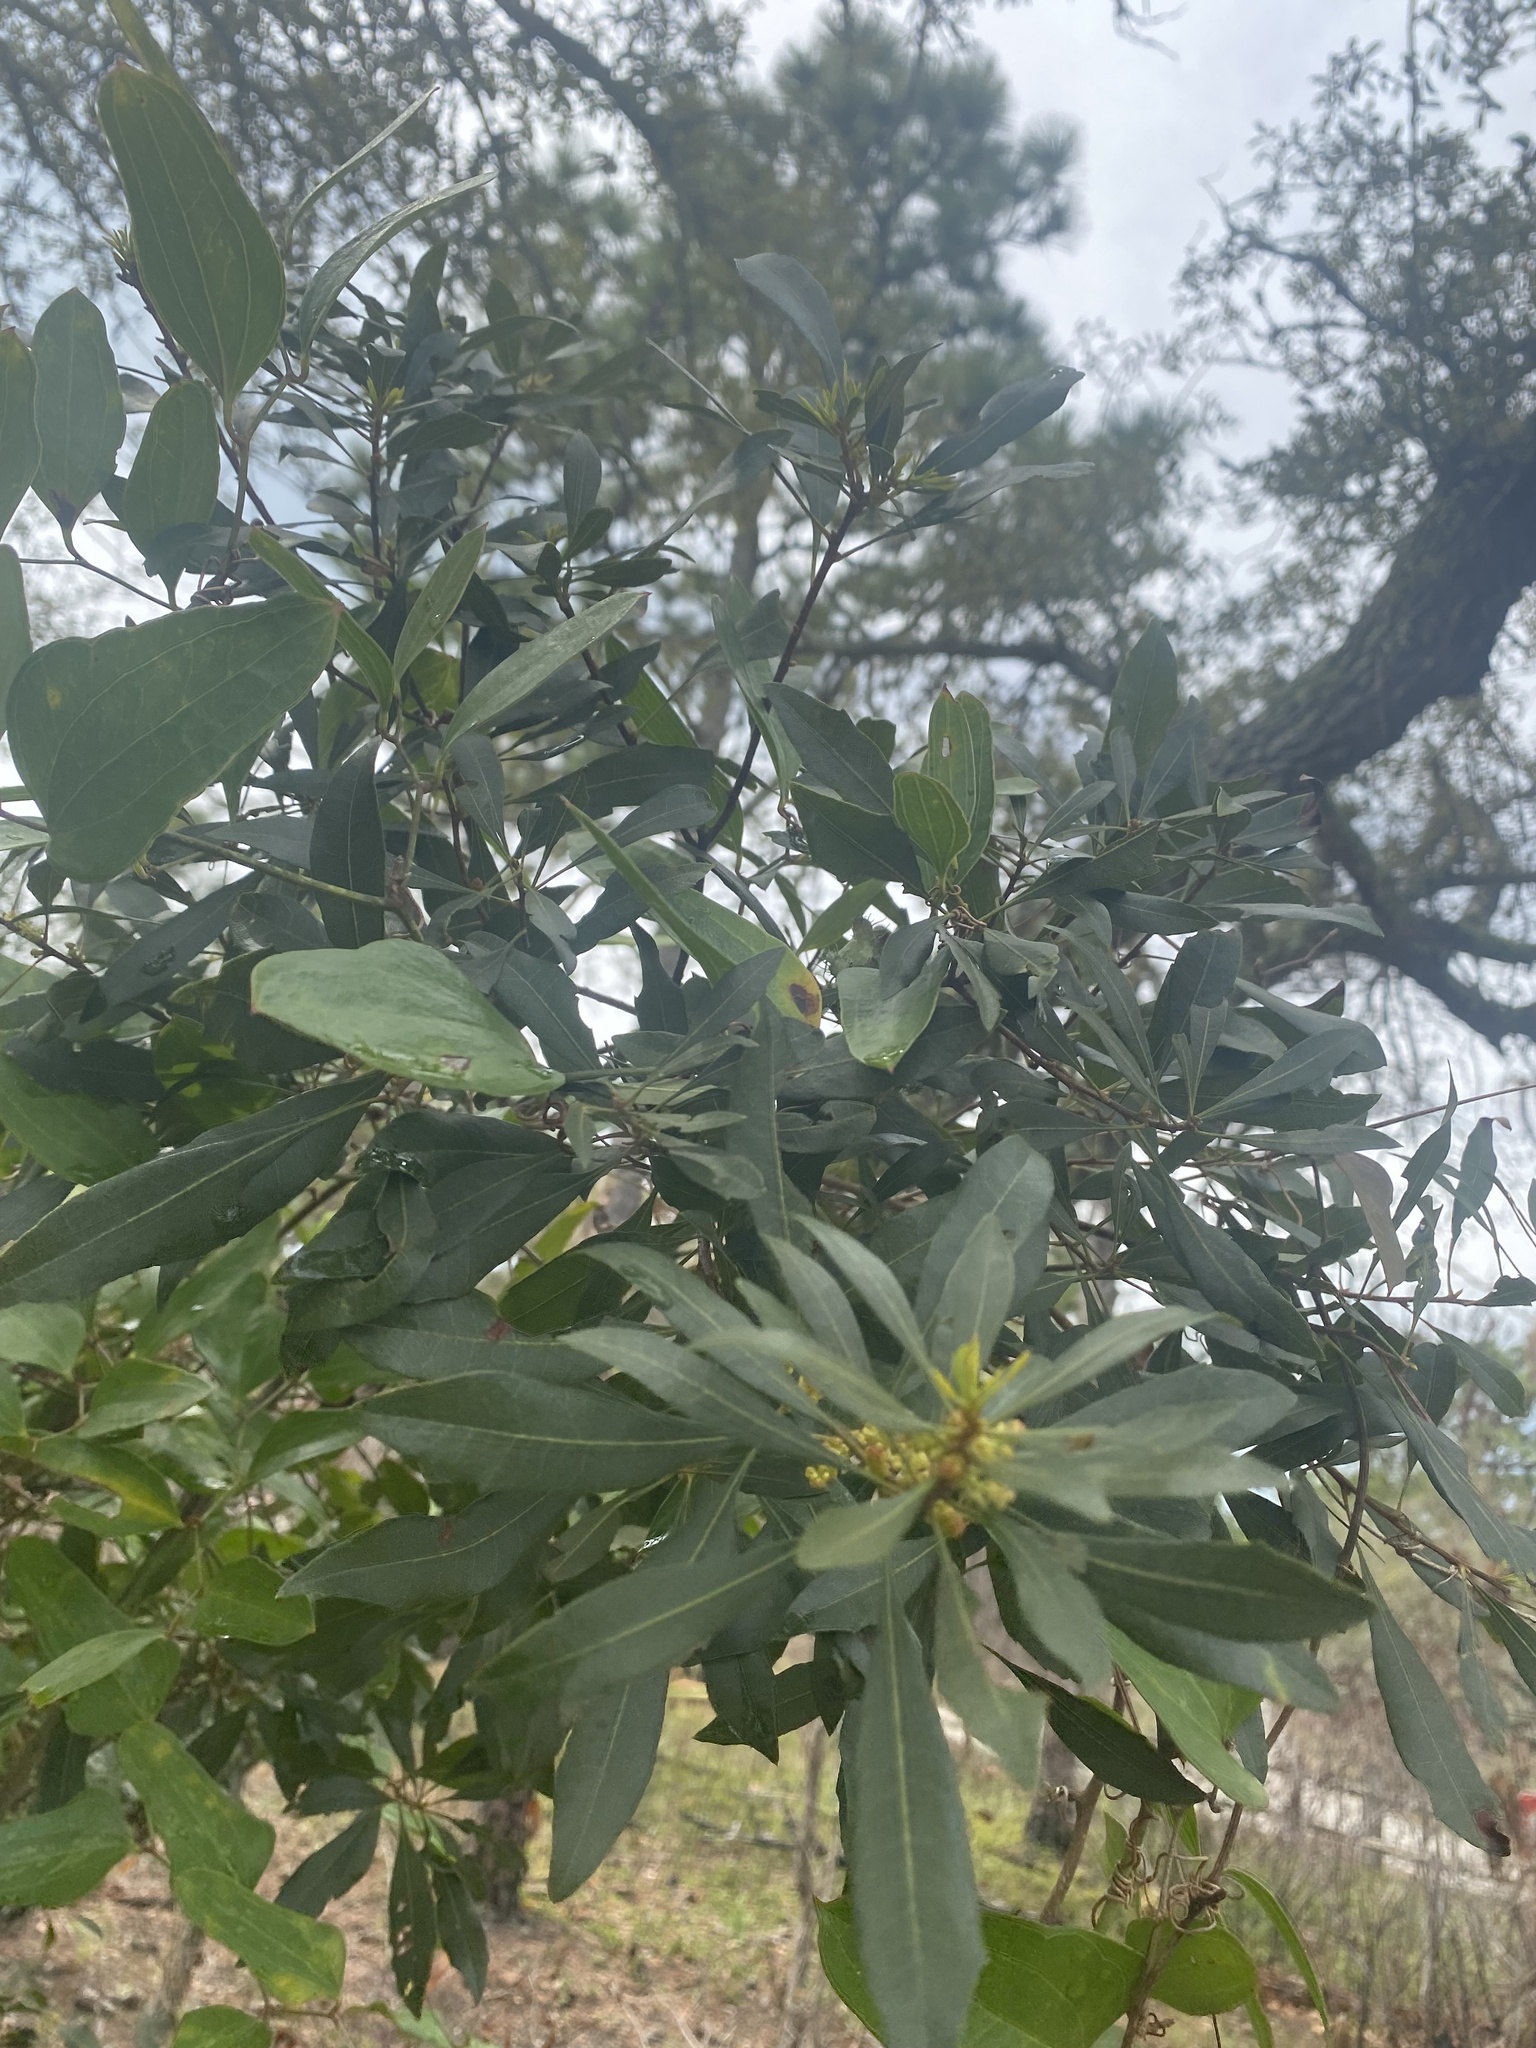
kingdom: Plantae
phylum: Tracheophyta
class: Magnoliopsida
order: Fagales
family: Myricaceae
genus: Morella
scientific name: Morella cerifera
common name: Wax myrtle
